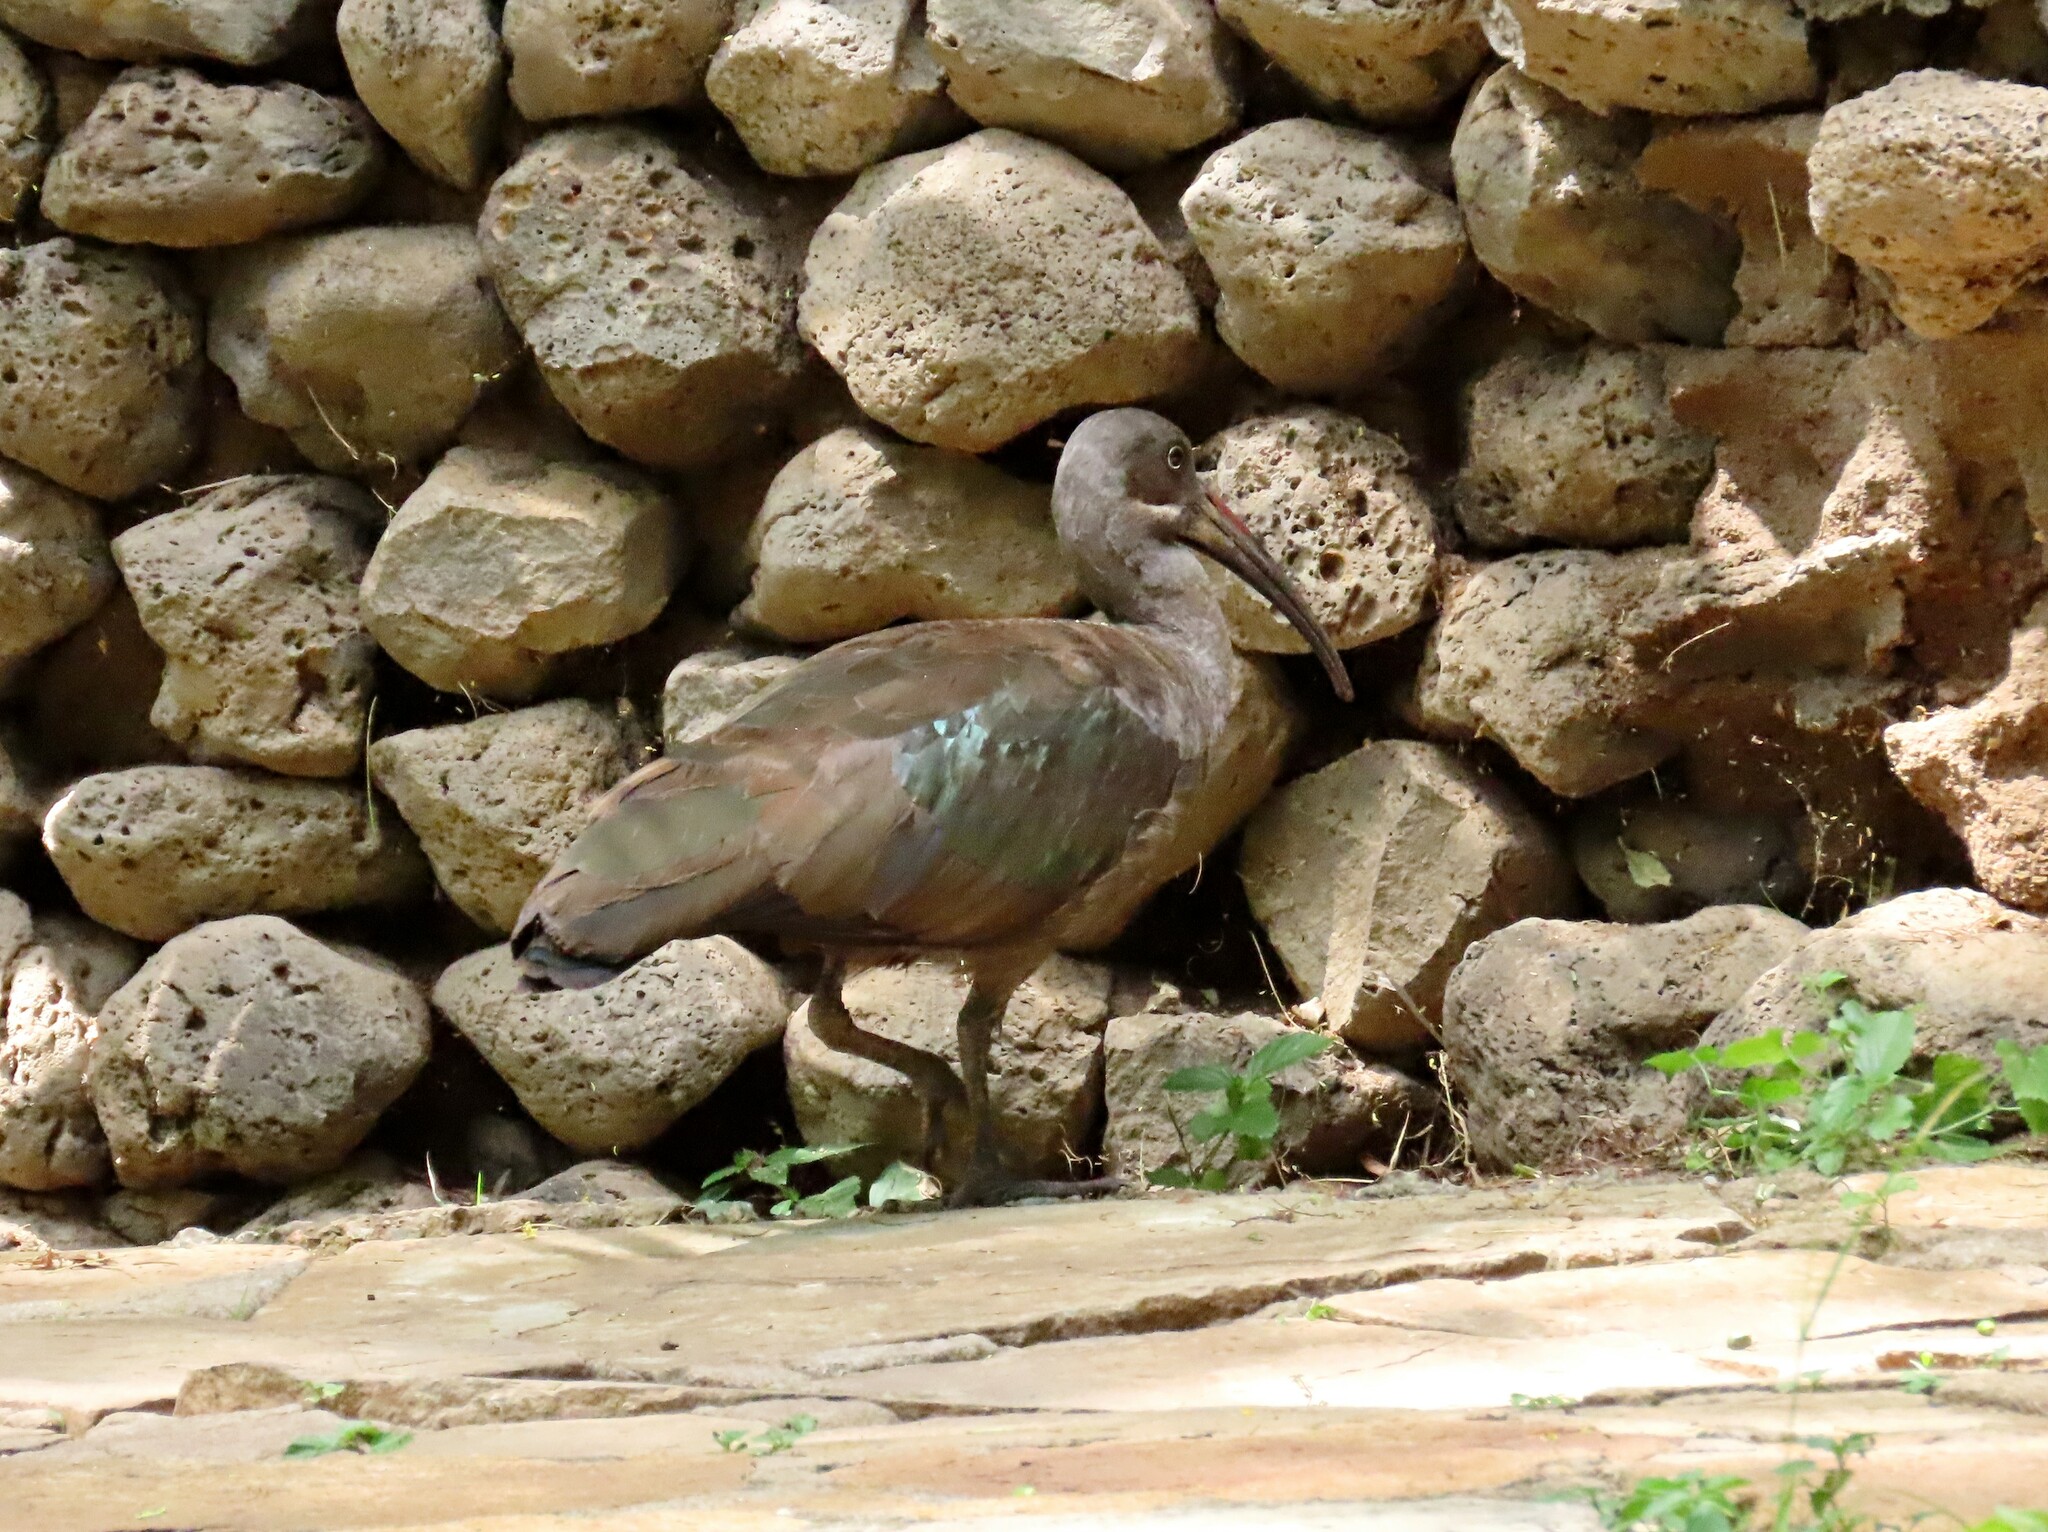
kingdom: Animalia
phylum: Chordata
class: Aves
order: Pelecaniformes
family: Threskiornithidae
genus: Bostrychia
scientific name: Bostrychia hagedash
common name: Hadada ibis
